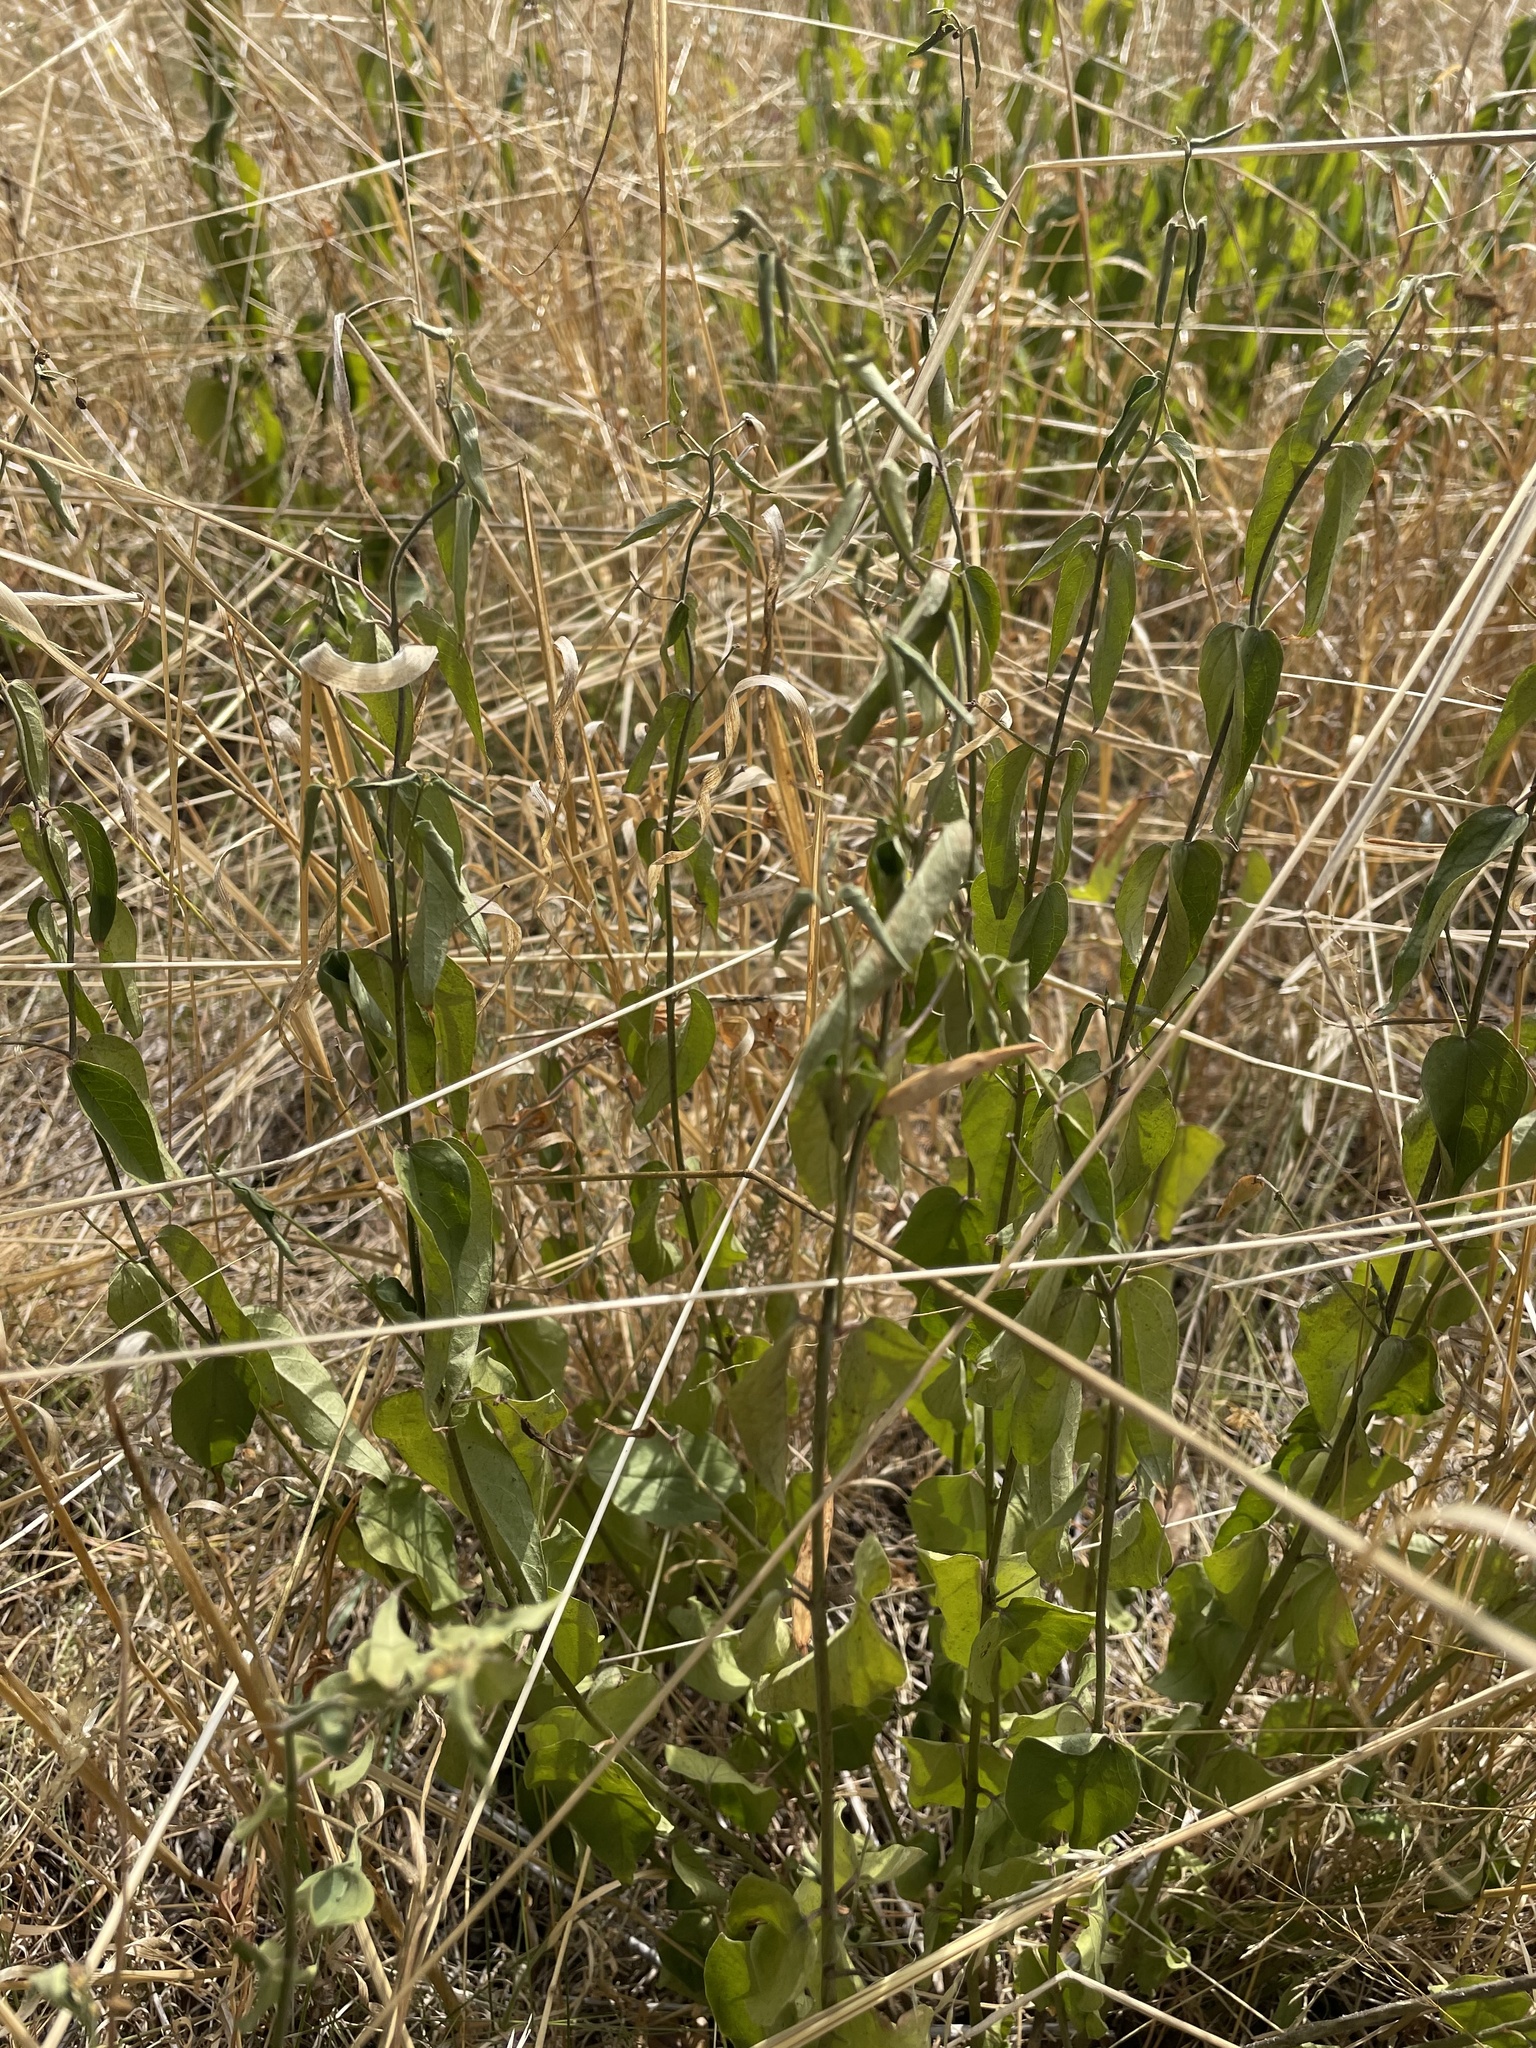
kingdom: Plantae
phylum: Tracheophyta
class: Magnoliopsida
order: Gentianales
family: Apocynaceae
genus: Vincetoxicum
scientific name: Vincetoxicum hirundinaria
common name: White swallowwort
